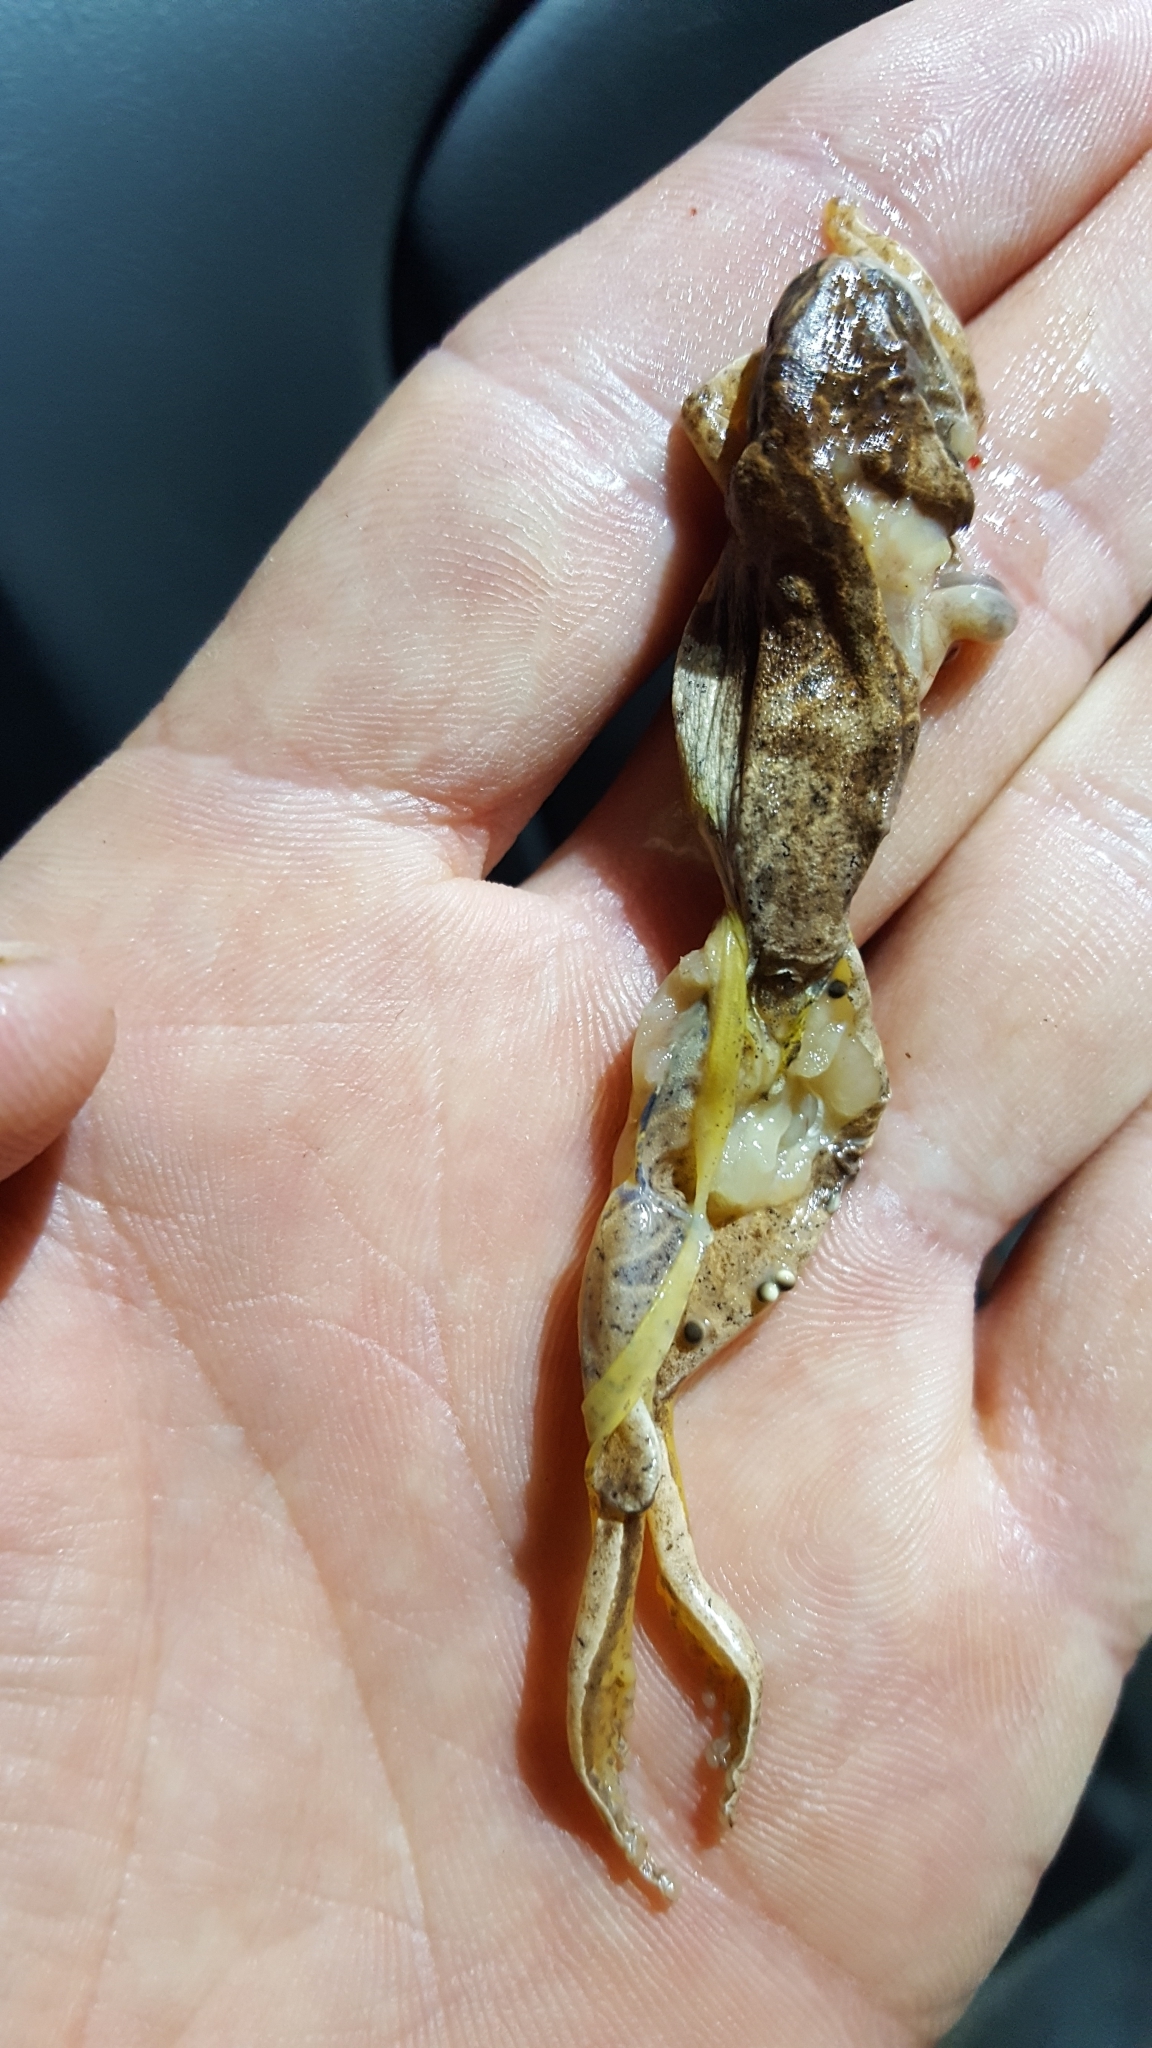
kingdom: Animalia
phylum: Chordata
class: Amphibia
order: Anura
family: Hylidae
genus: Pseudacris
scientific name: Pseudacris crucifer
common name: Spring peeper
